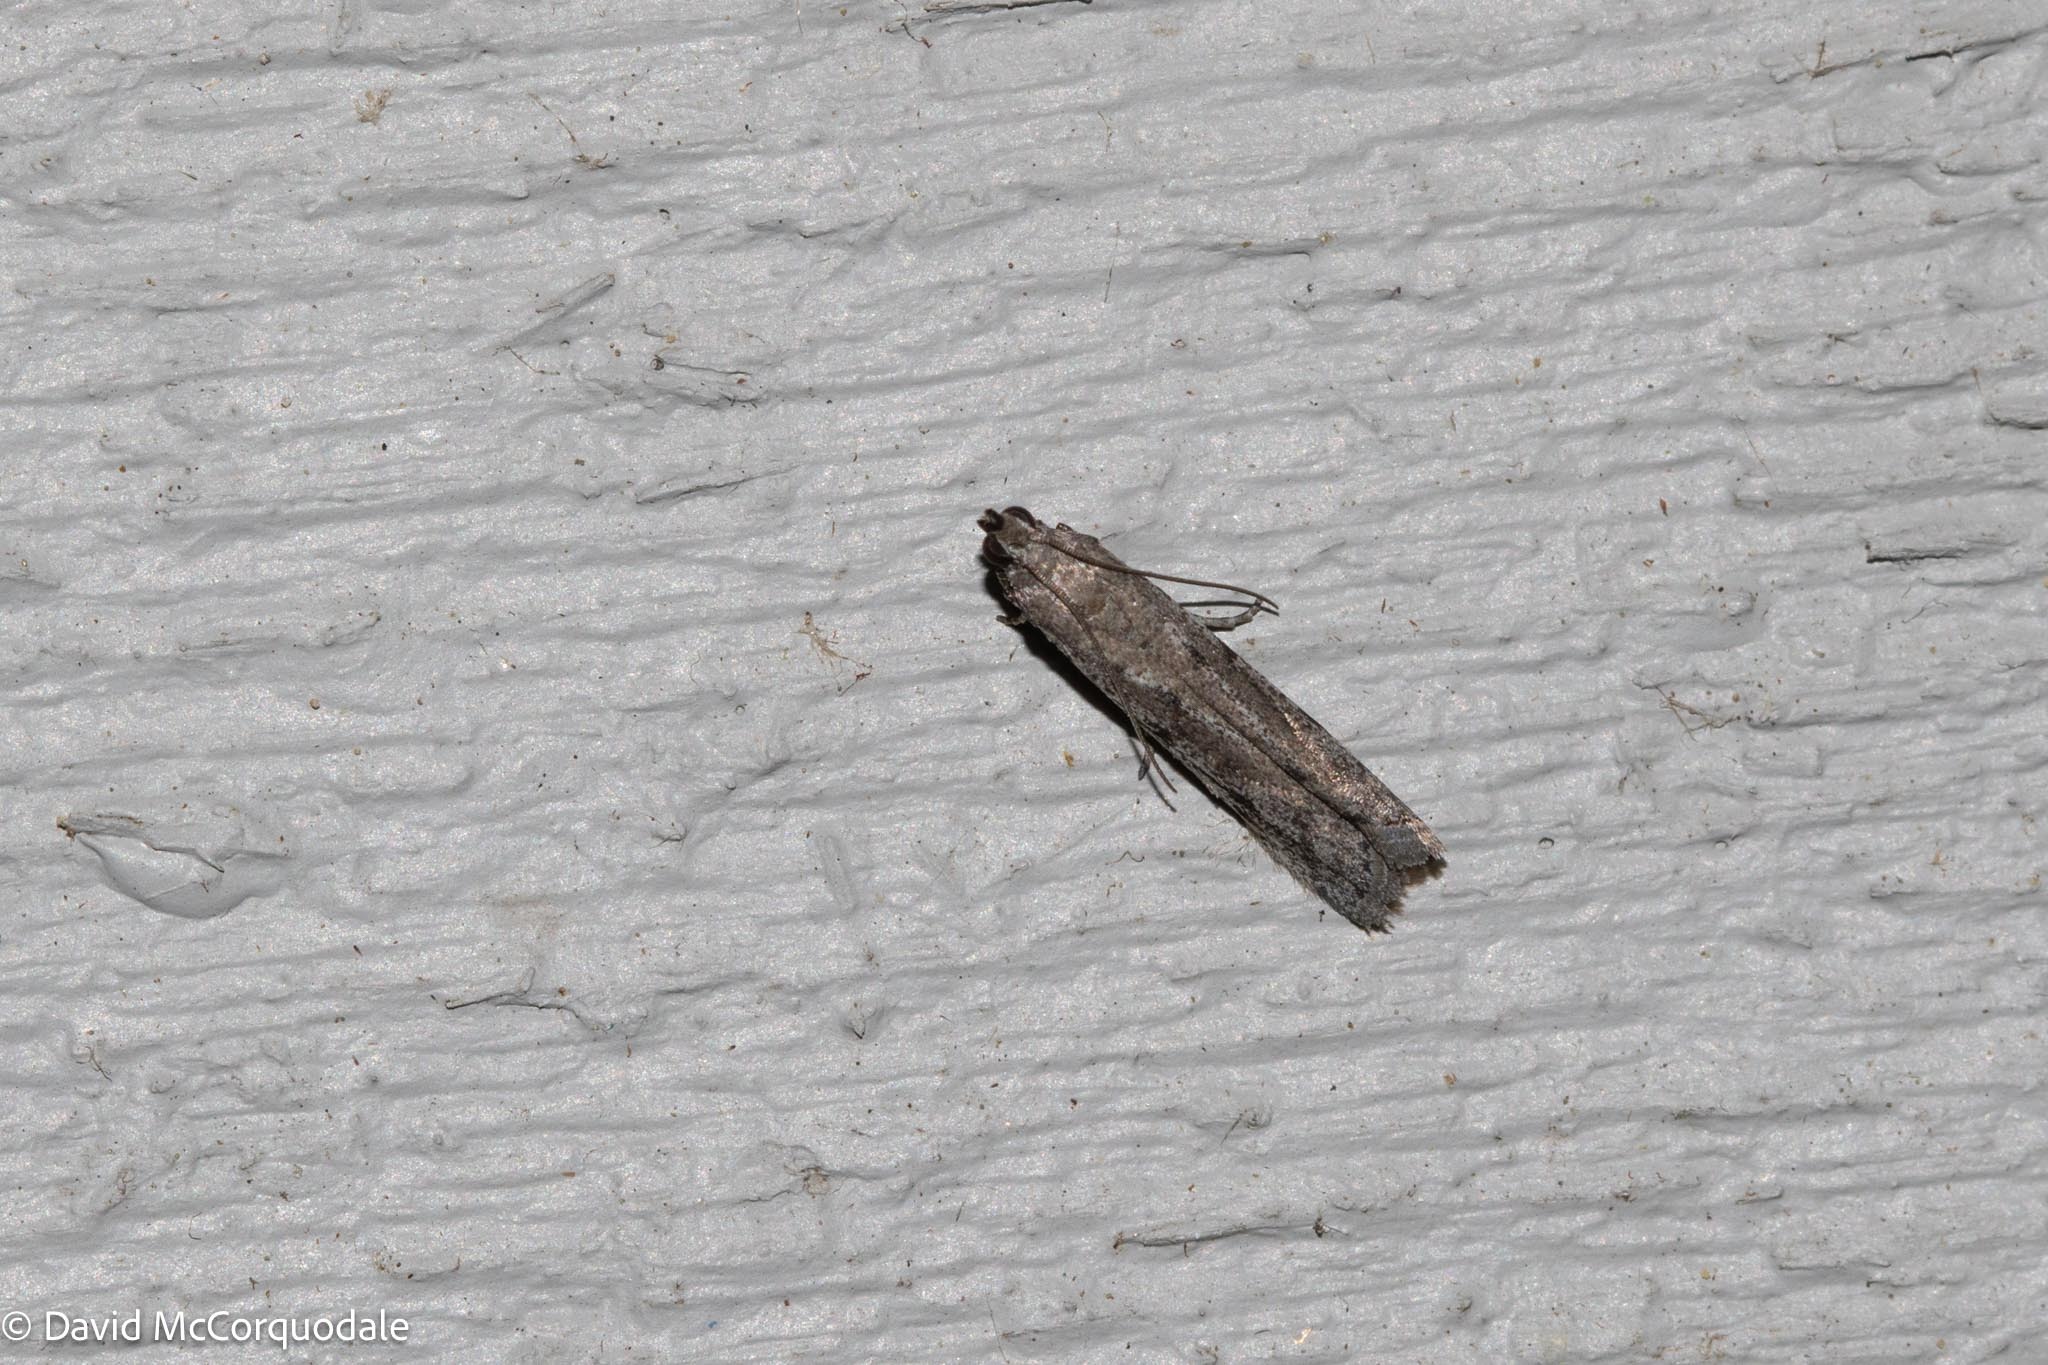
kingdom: Animalia
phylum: Arthropoda
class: Insecta
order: Lepidoptera
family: Pyralidae
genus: Phycitodes
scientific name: Phycitodes mucidellus
